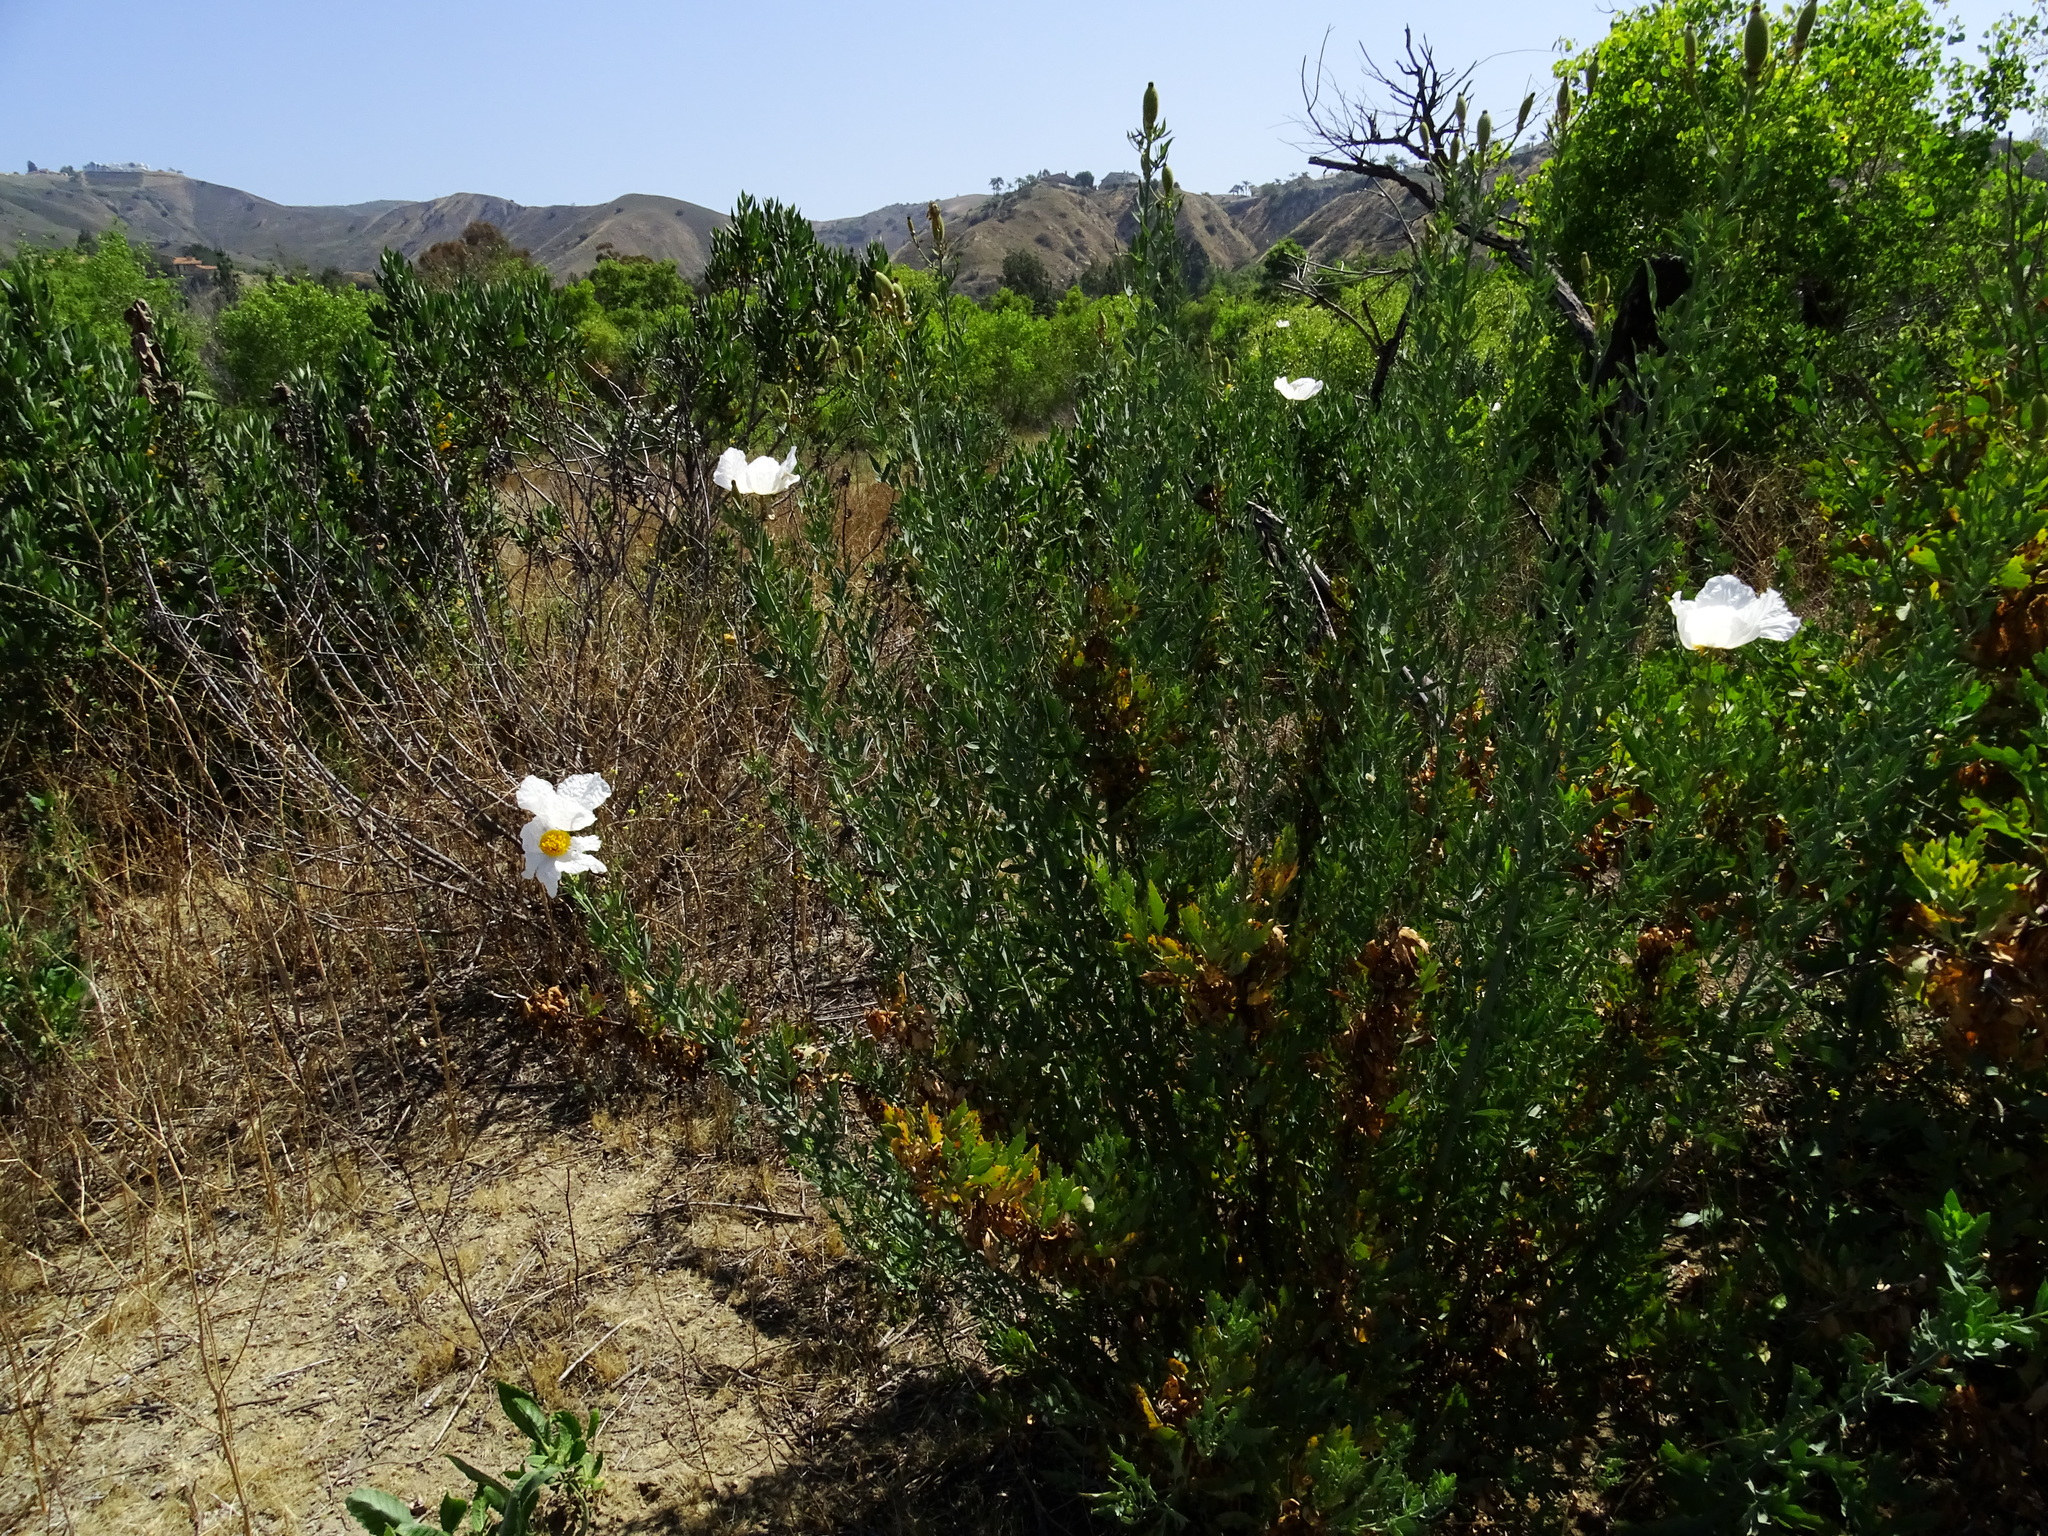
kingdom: Plantae
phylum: Tracheophyta
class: Magnoliopsida
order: Ranunculales
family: Papaveraceae
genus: Romneya
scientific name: Romneya coulteri
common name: California tree-poppy
